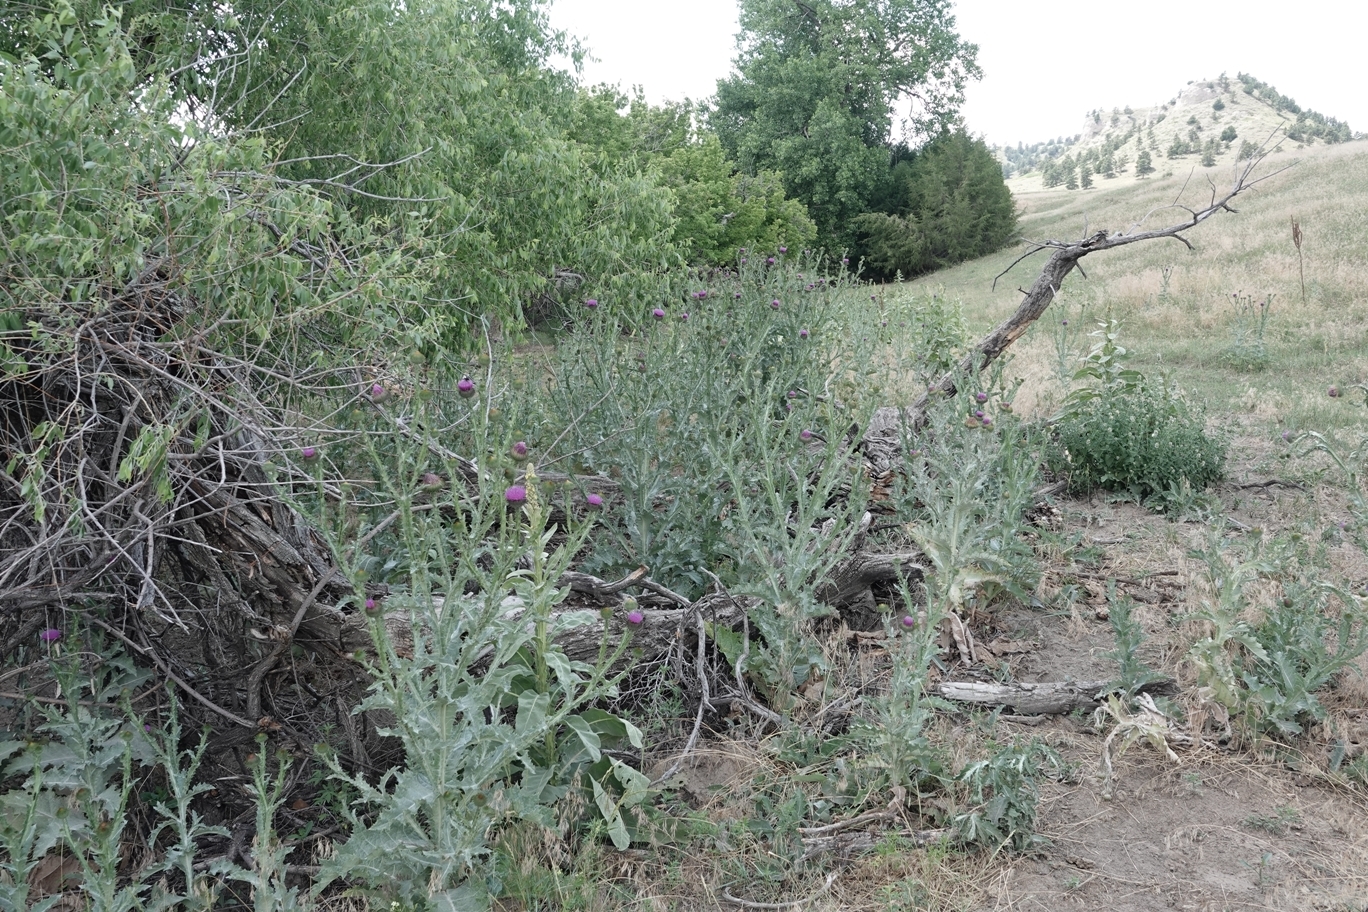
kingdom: Plantae
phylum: Tracheophyta
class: Magnoliopsida
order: Asterales
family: Asteraceae
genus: Onopordum
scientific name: Onopordum acanthium
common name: Scotch thistle
